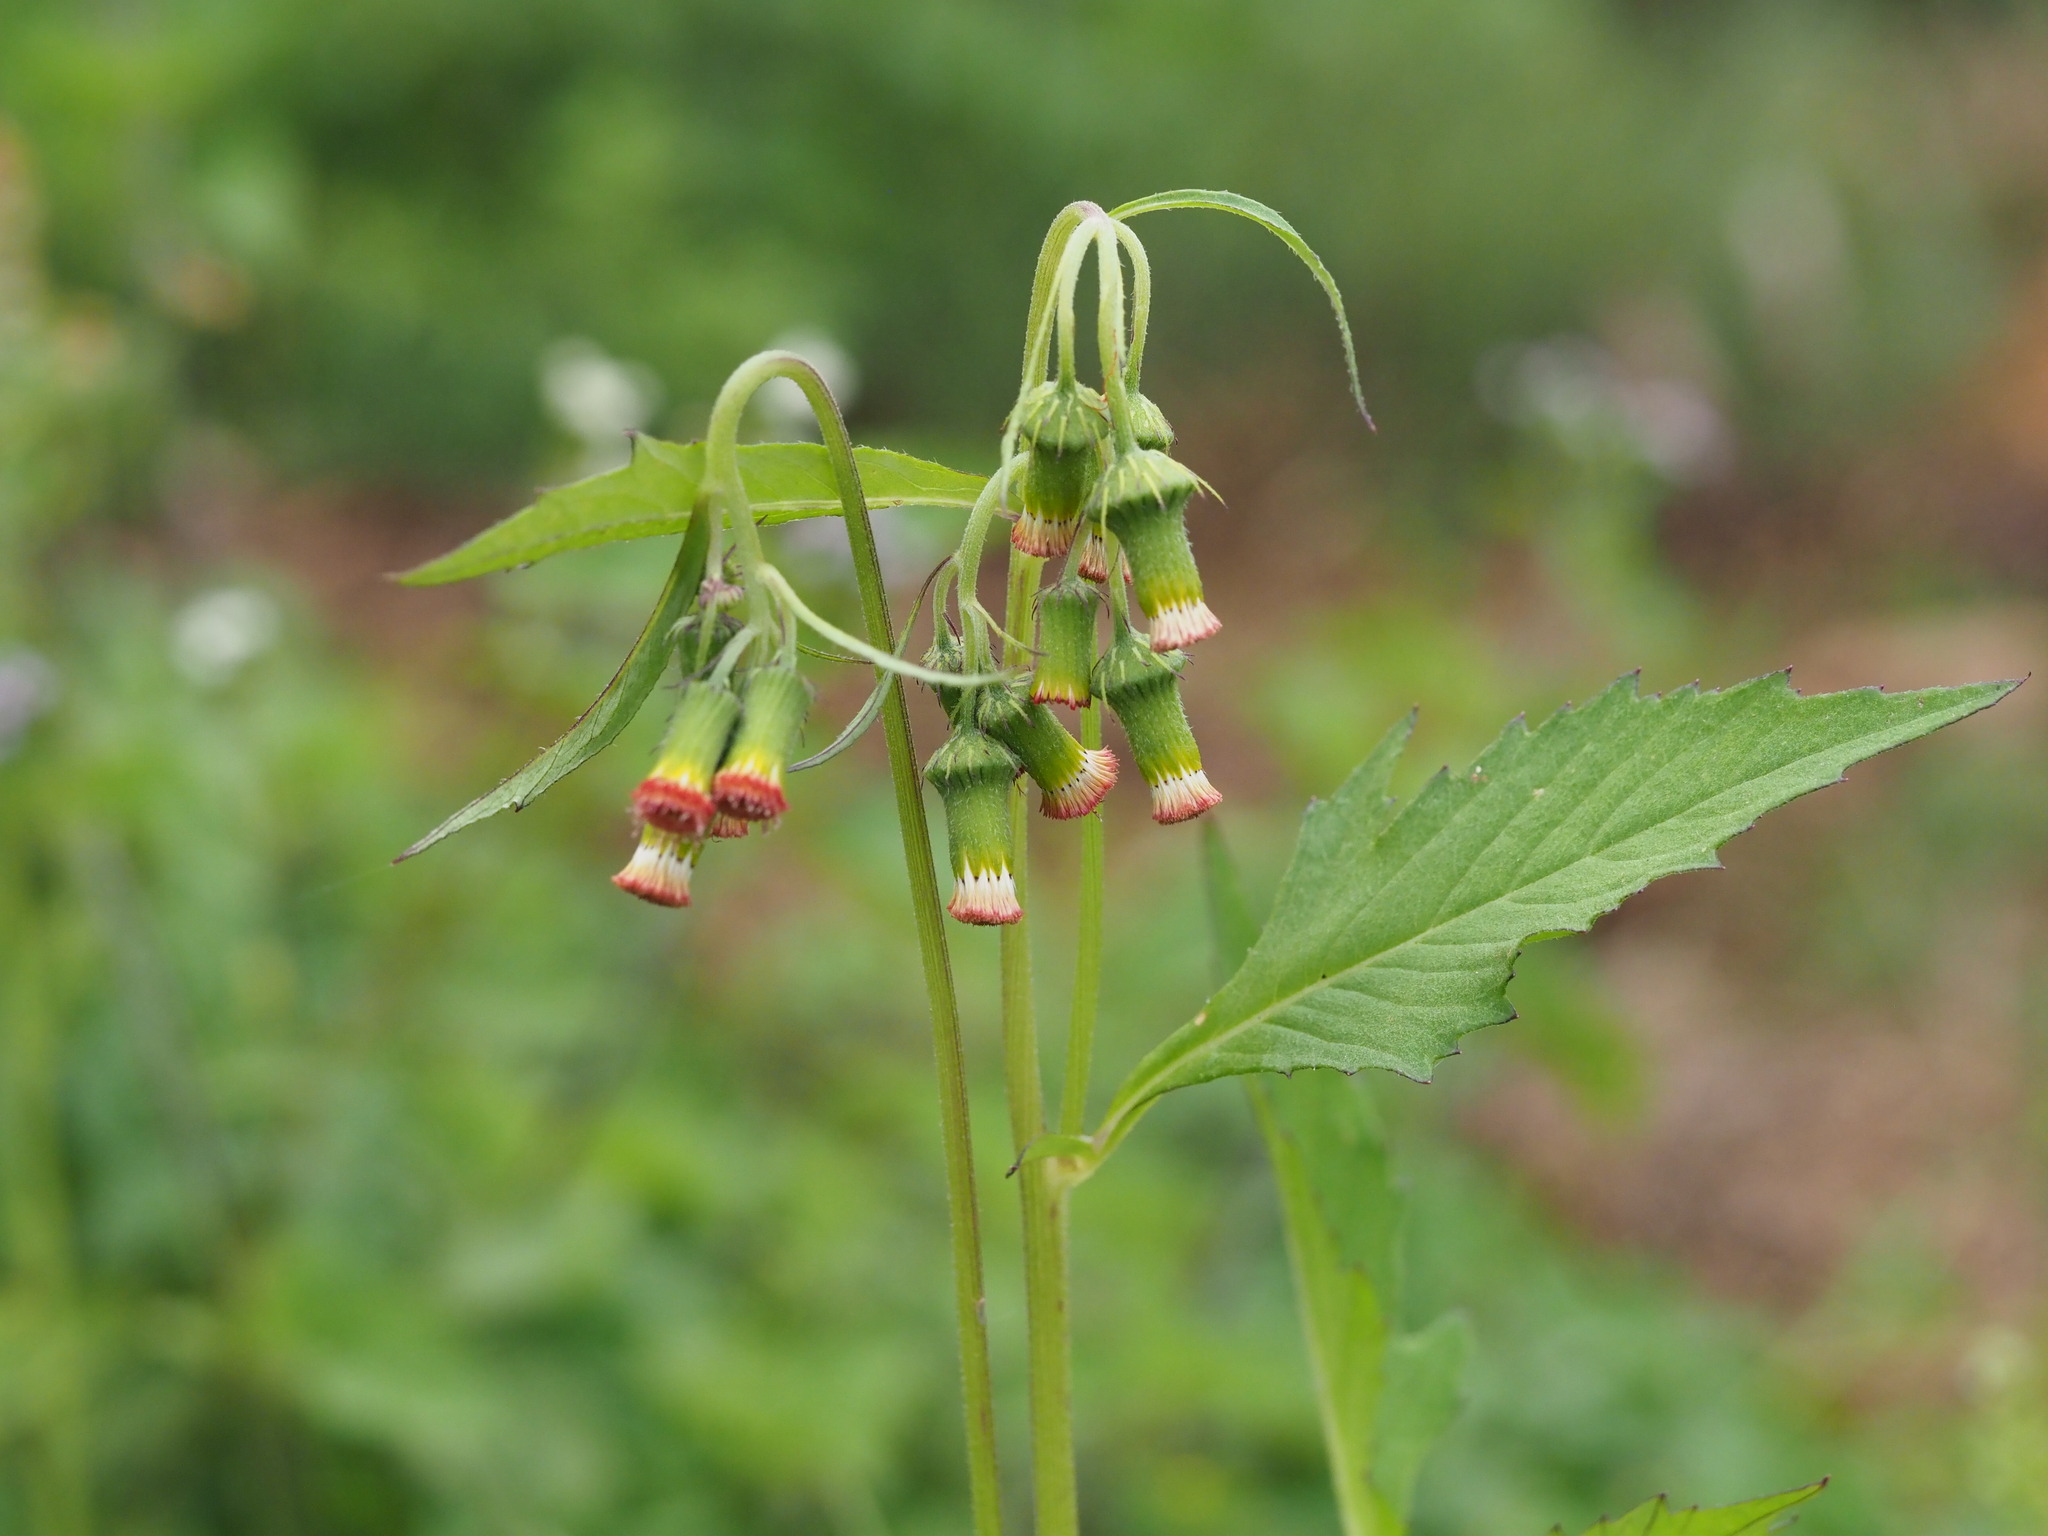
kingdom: Plantae
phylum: Tracheophyta
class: Magnoliopsida
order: Asterales
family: Asteraceae
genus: Crassocephalum
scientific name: Crassocephalum crepidioides
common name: Redflower ragleaf
